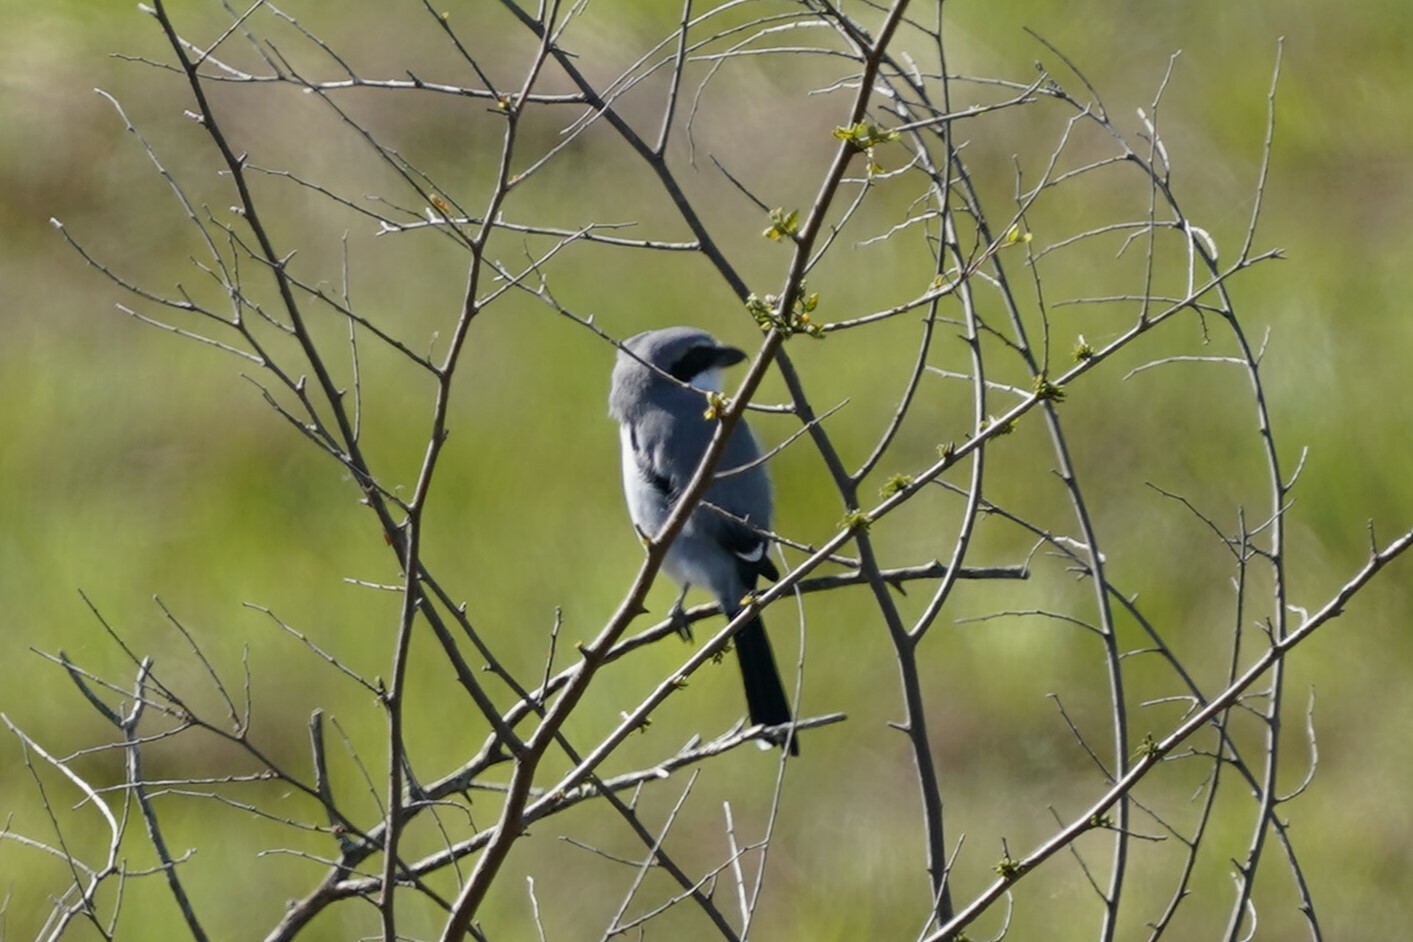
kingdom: Animalia
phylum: Chordata
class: Aves
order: Passeriformes
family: Laniidae
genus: Lanius
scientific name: Lanius ludovicianus
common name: Loggerhead shrike
